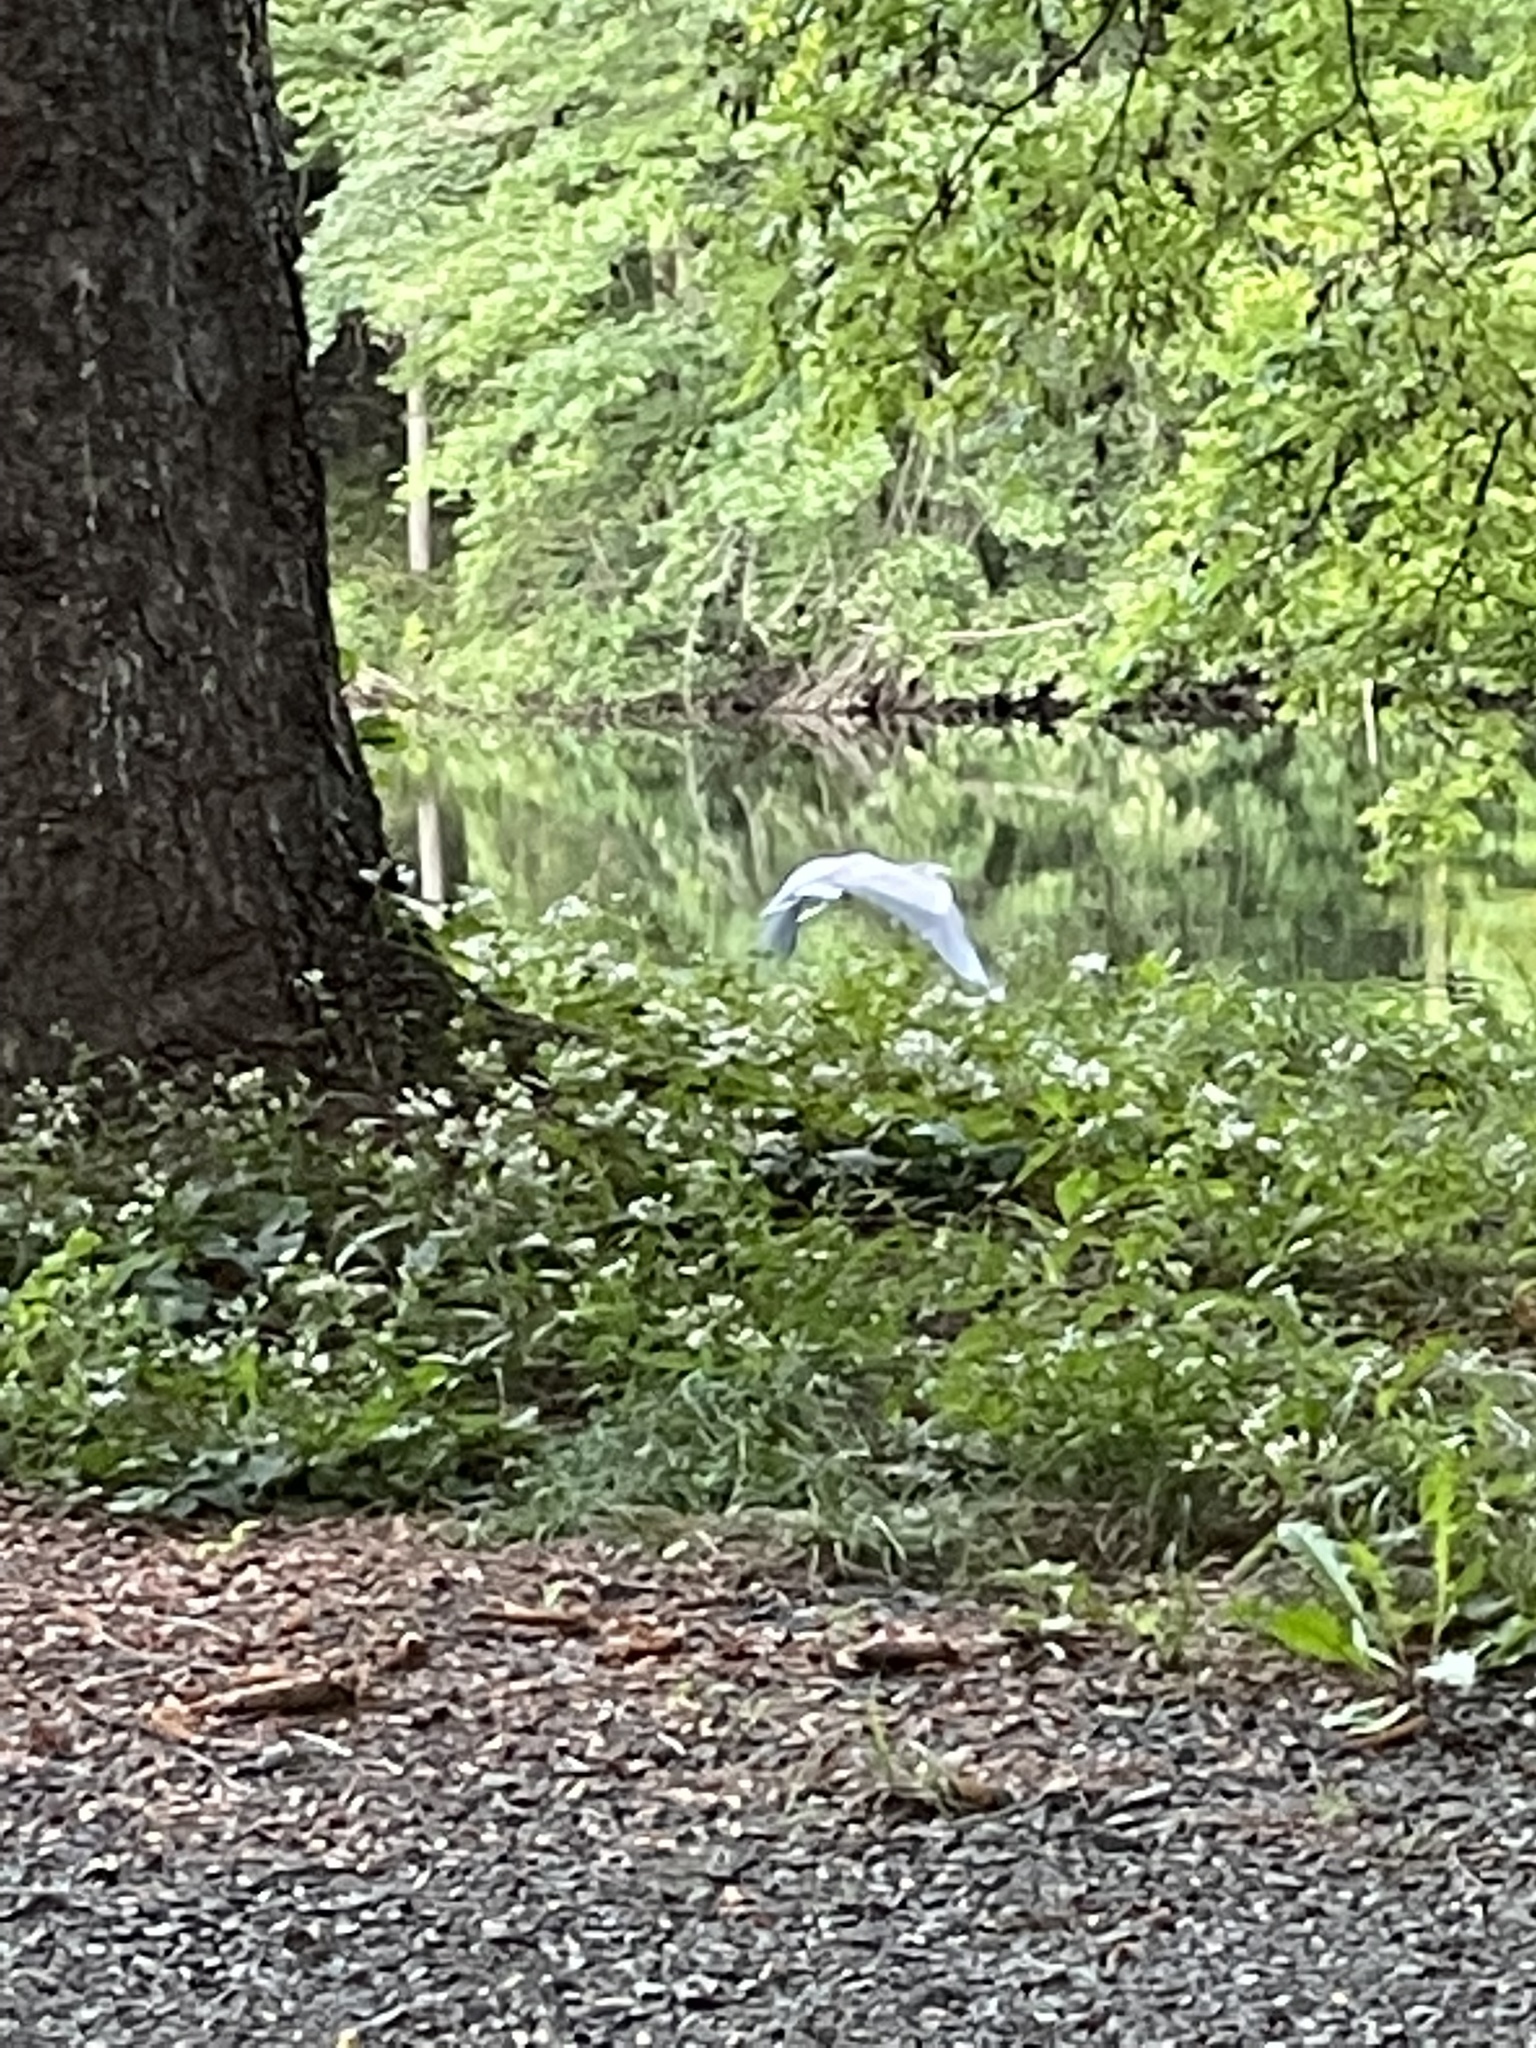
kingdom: Animalia
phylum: Chordata
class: Aves
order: Pelecaniformes
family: Ardeidae
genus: Ardea
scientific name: Ardea herodias
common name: Great blue heron
